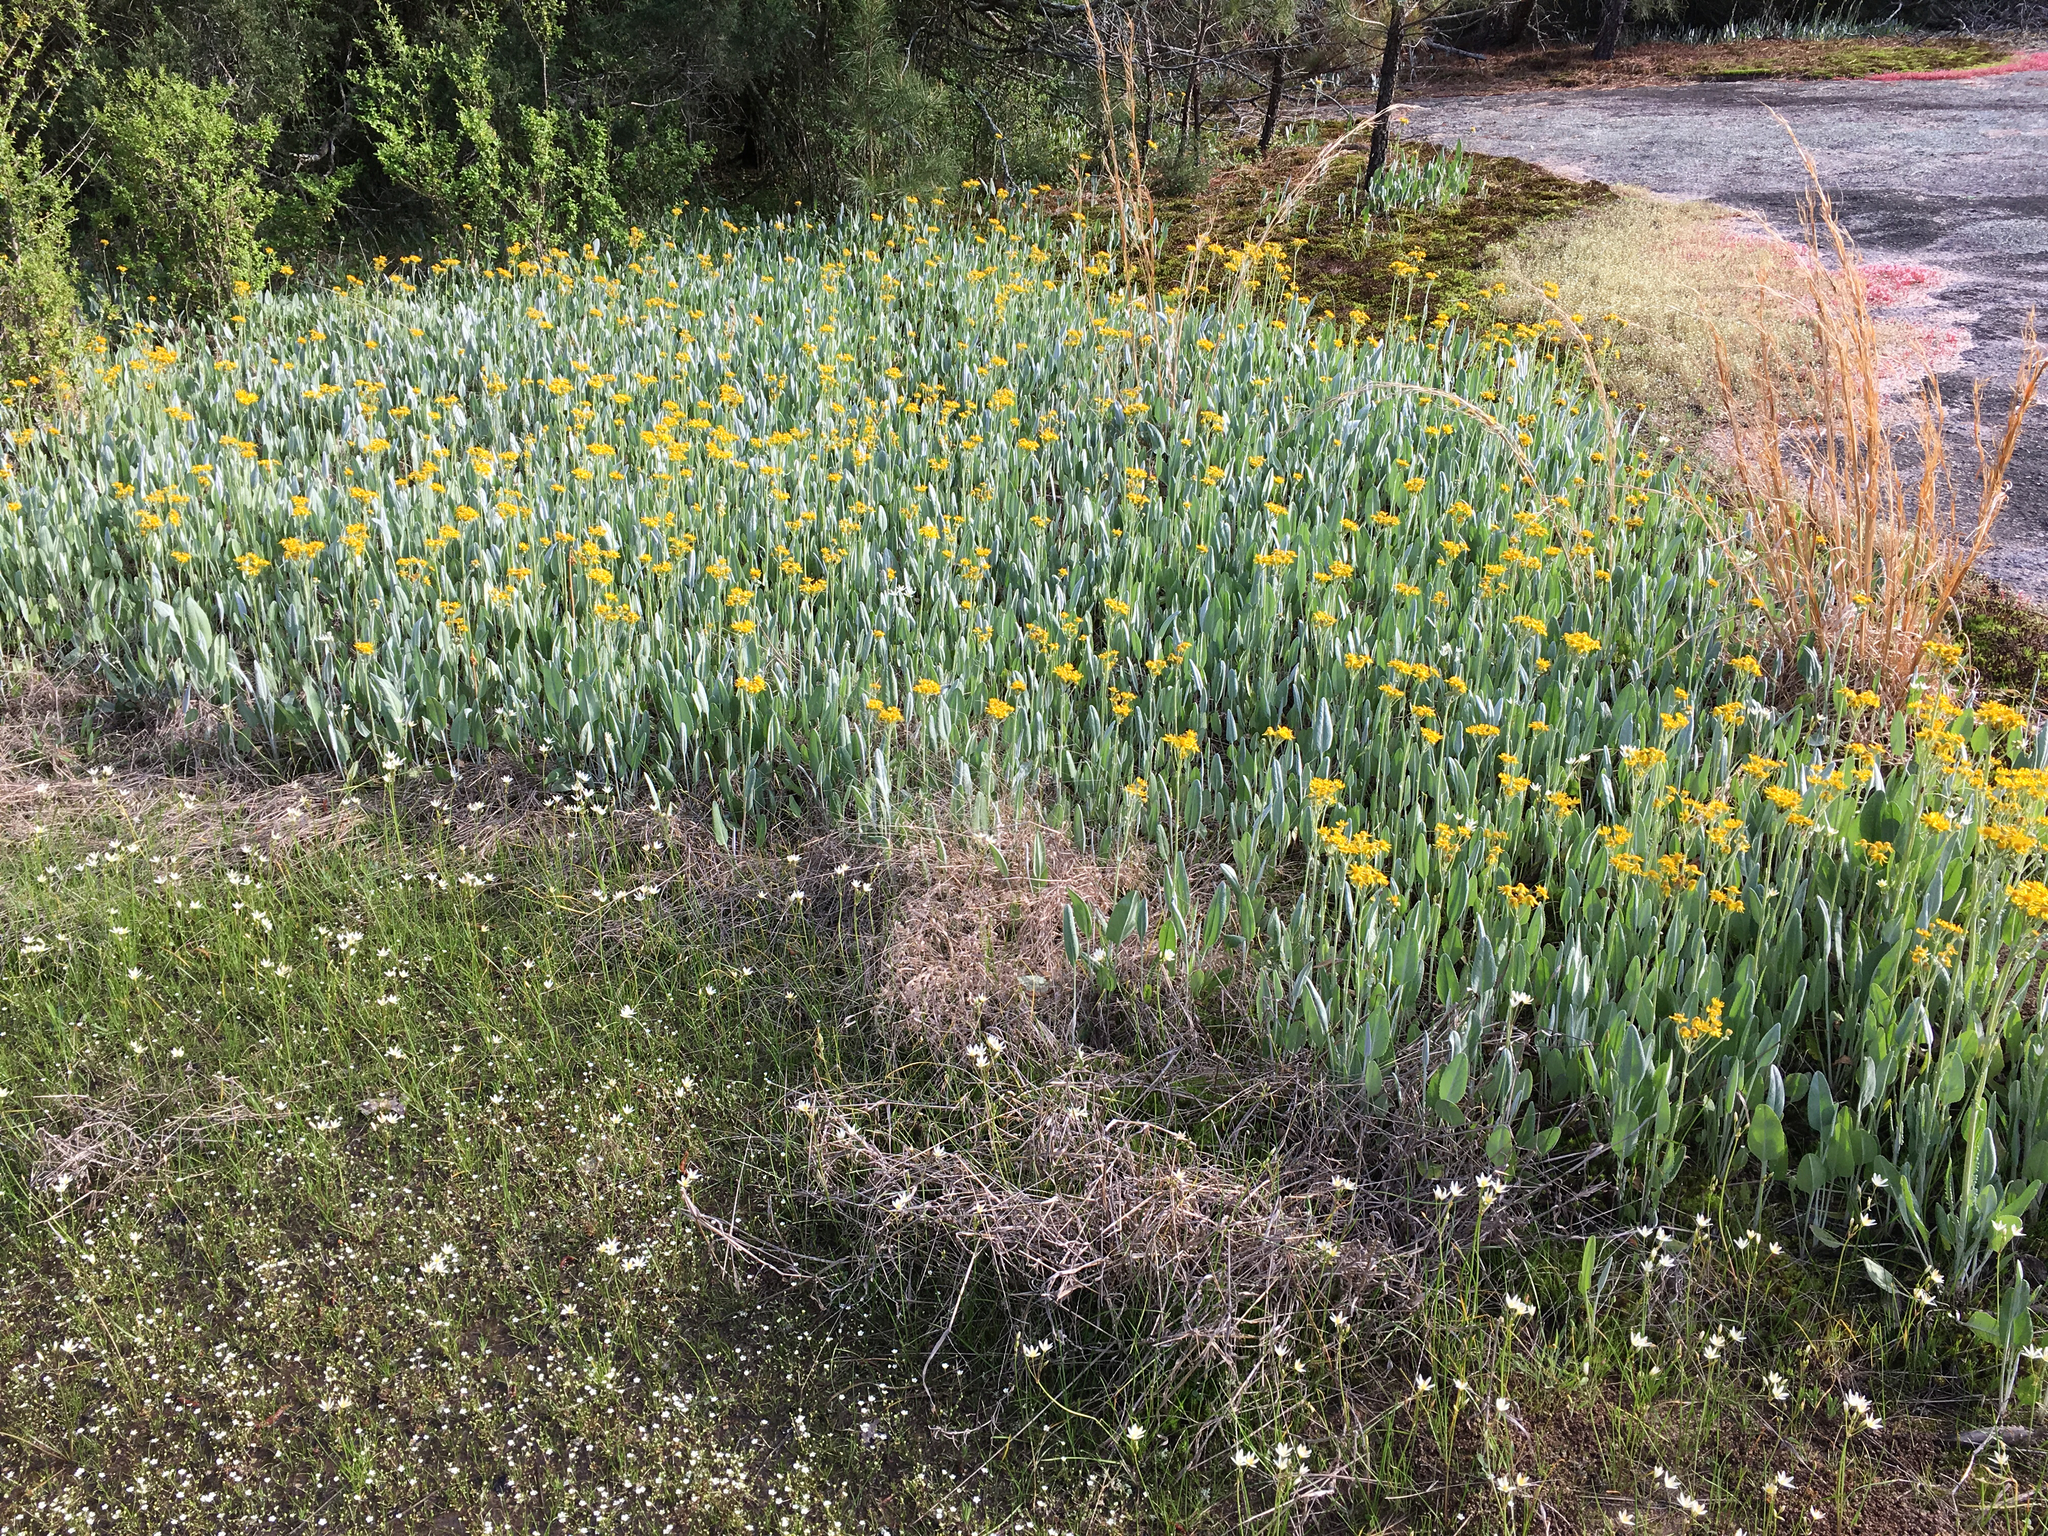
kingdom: Plantae
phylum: Tracheophyta
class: Magnoliopsida
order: Asterales
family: Asteraceae
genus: Packera
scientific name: Packera dubia
